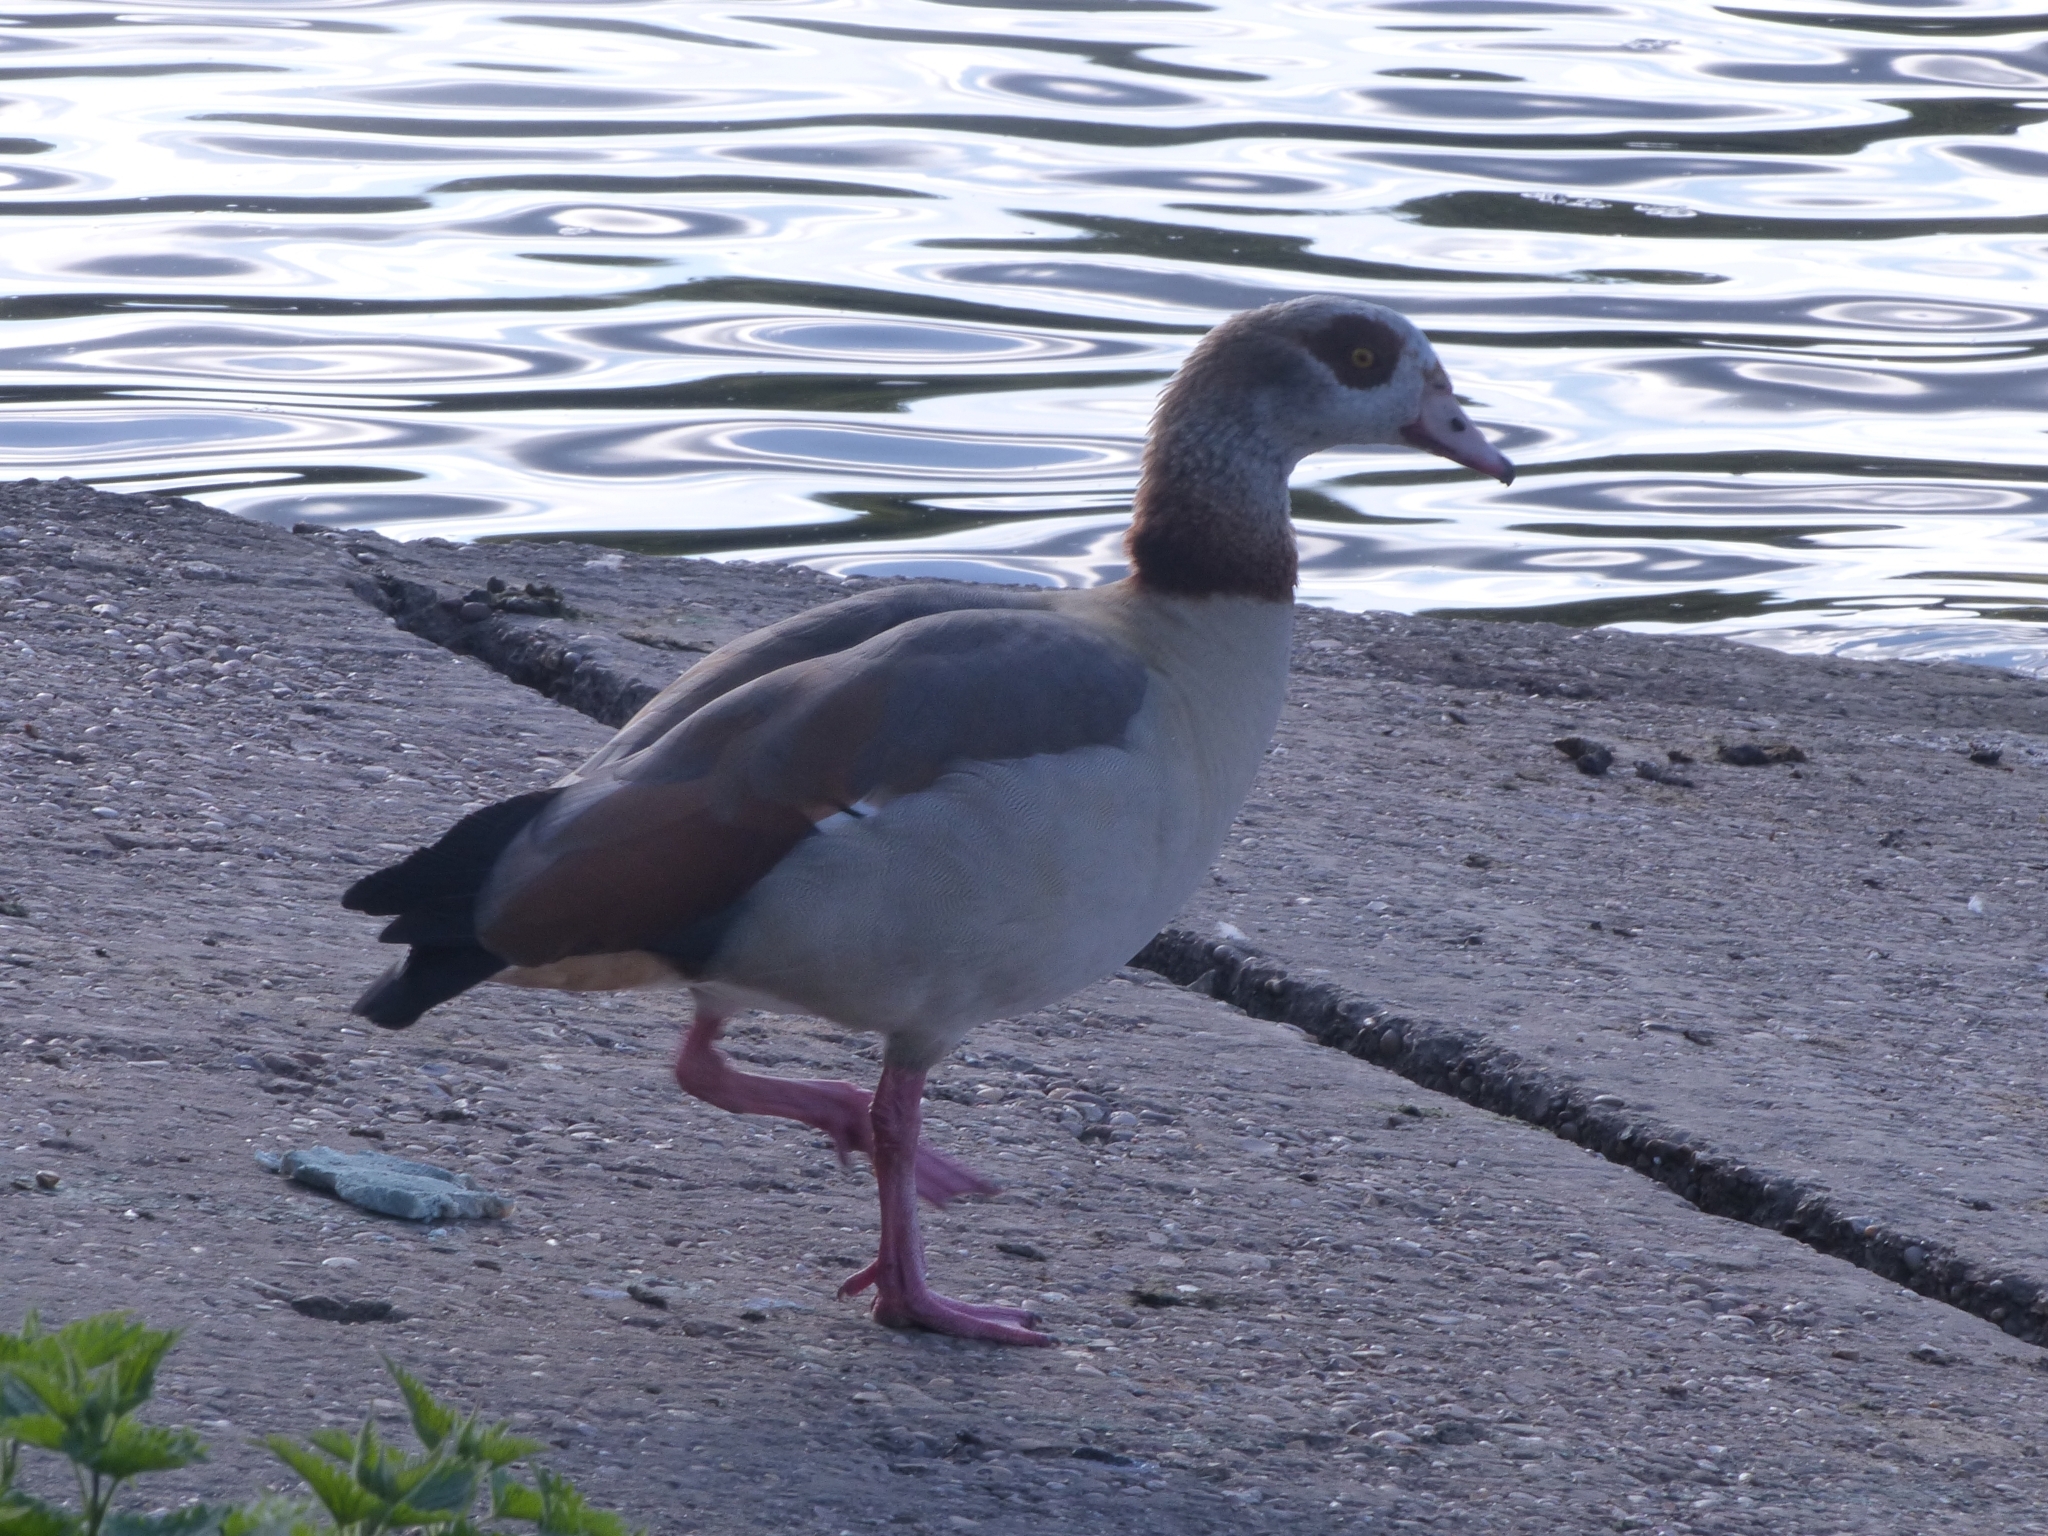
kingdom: Animalia
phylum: Chordata
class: Aves
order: Anseriformes
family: Anatidae
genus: Alopochen
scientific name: Alopochen aegyptiaca
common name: Egyptian goose
